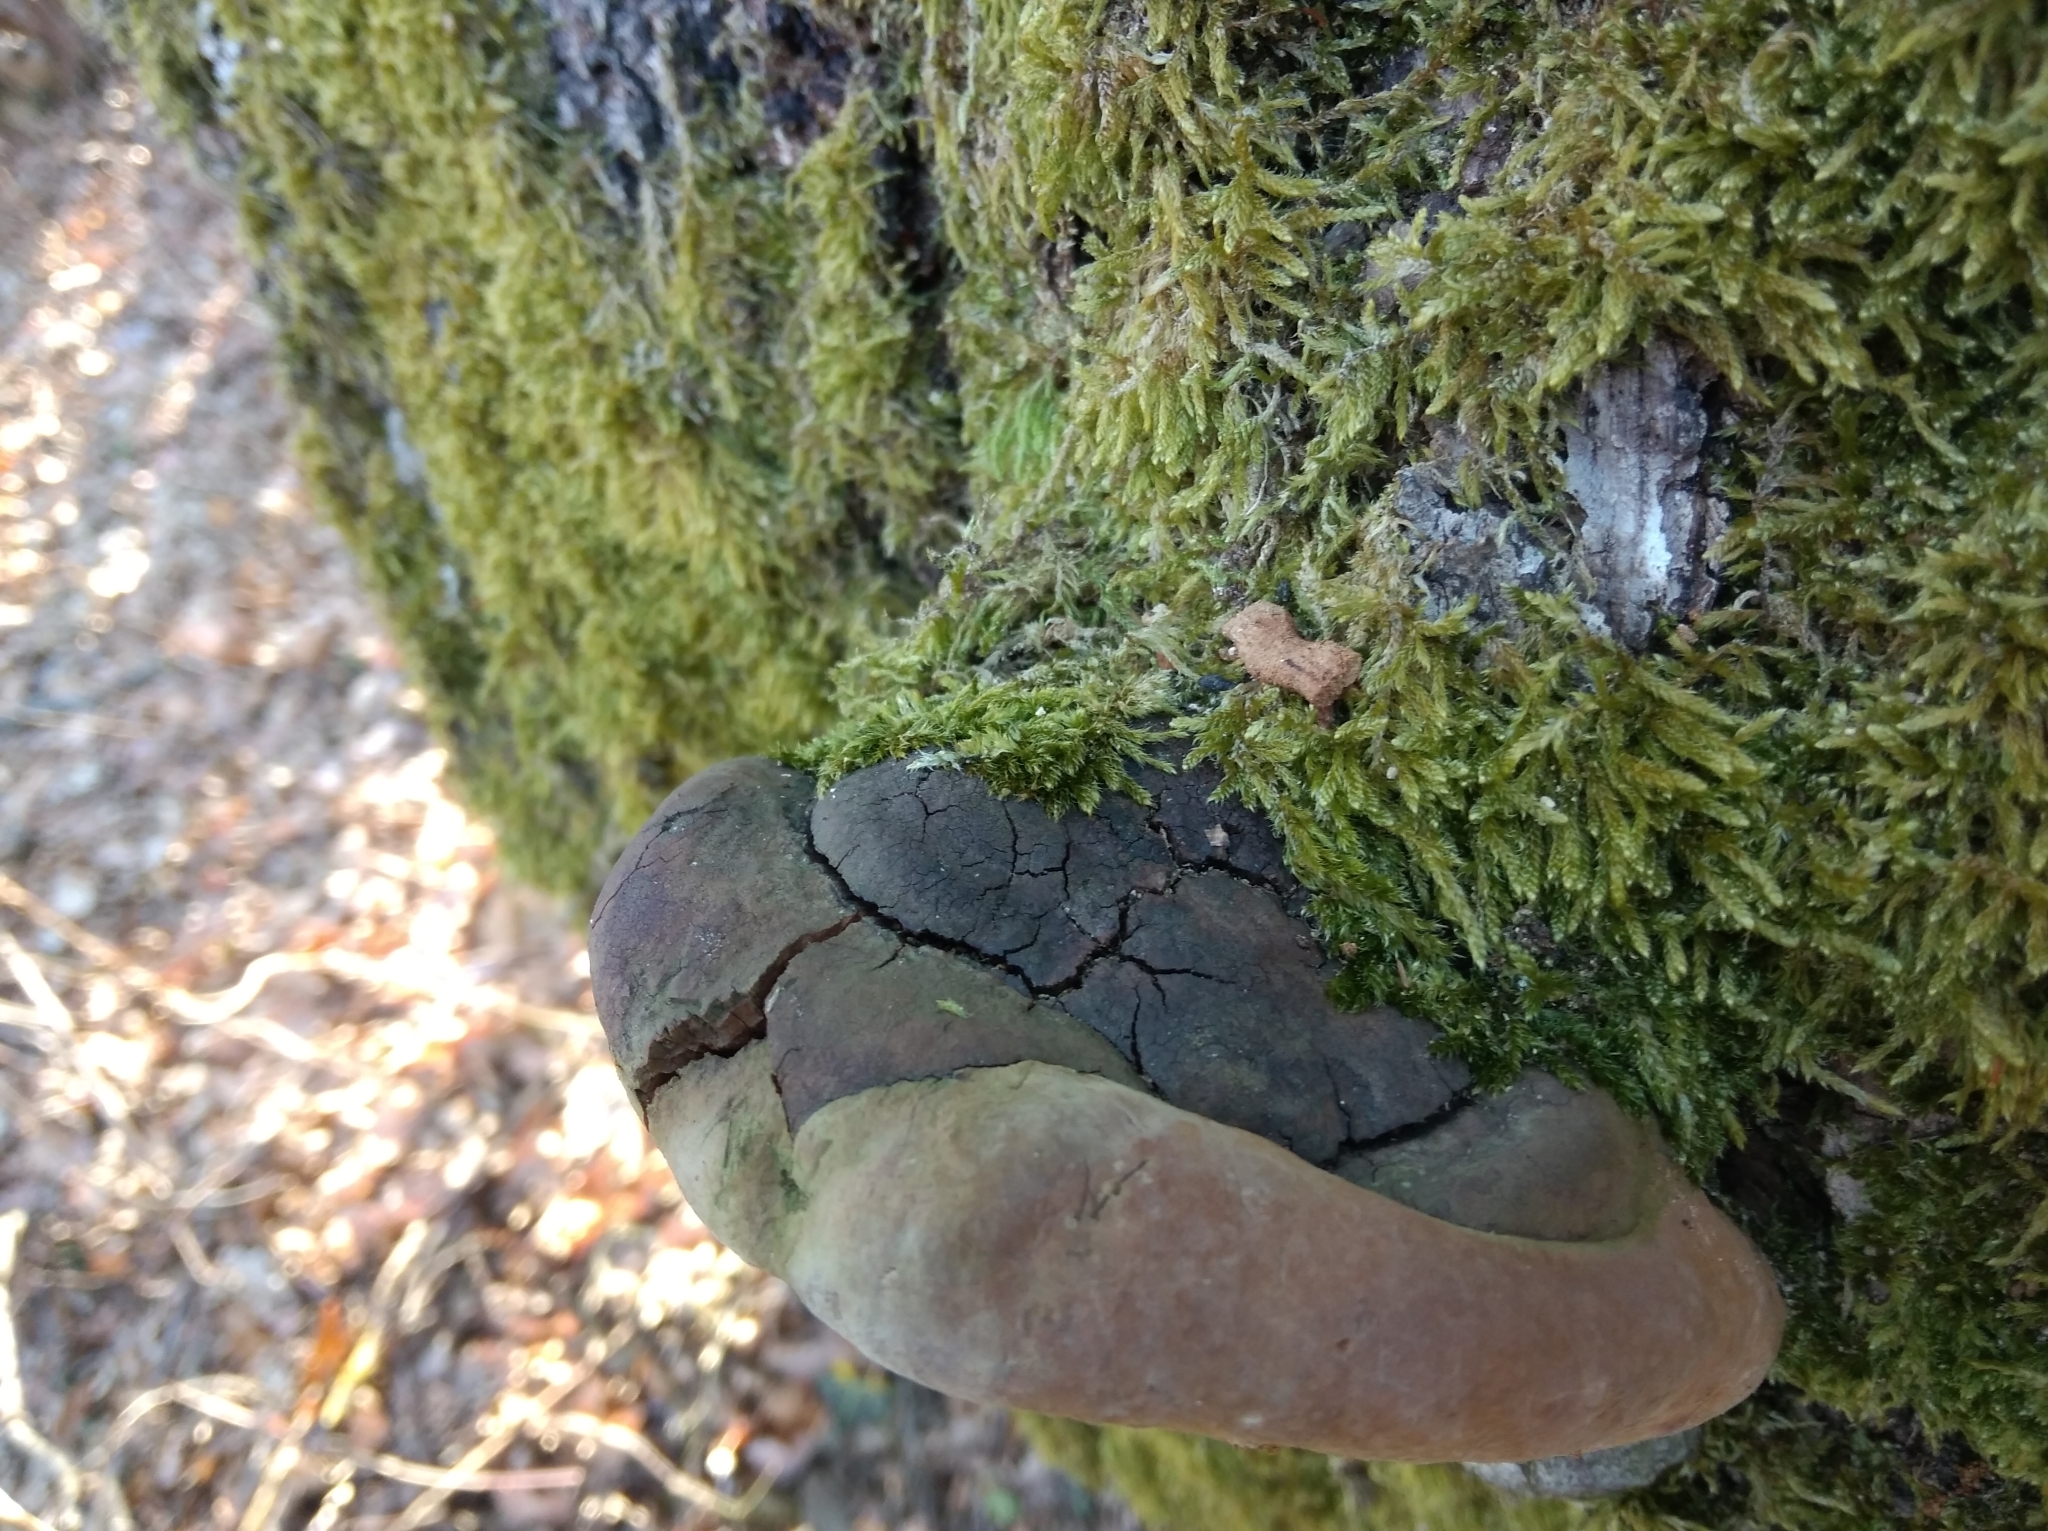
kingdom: Fungi
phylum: Basidiomycota
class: Agaricomycetes
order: Hymenochaetales
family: Hymenochaetaceae
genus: Fomitiporia
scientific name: Fomitiporia robusta
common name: Robust bracket
